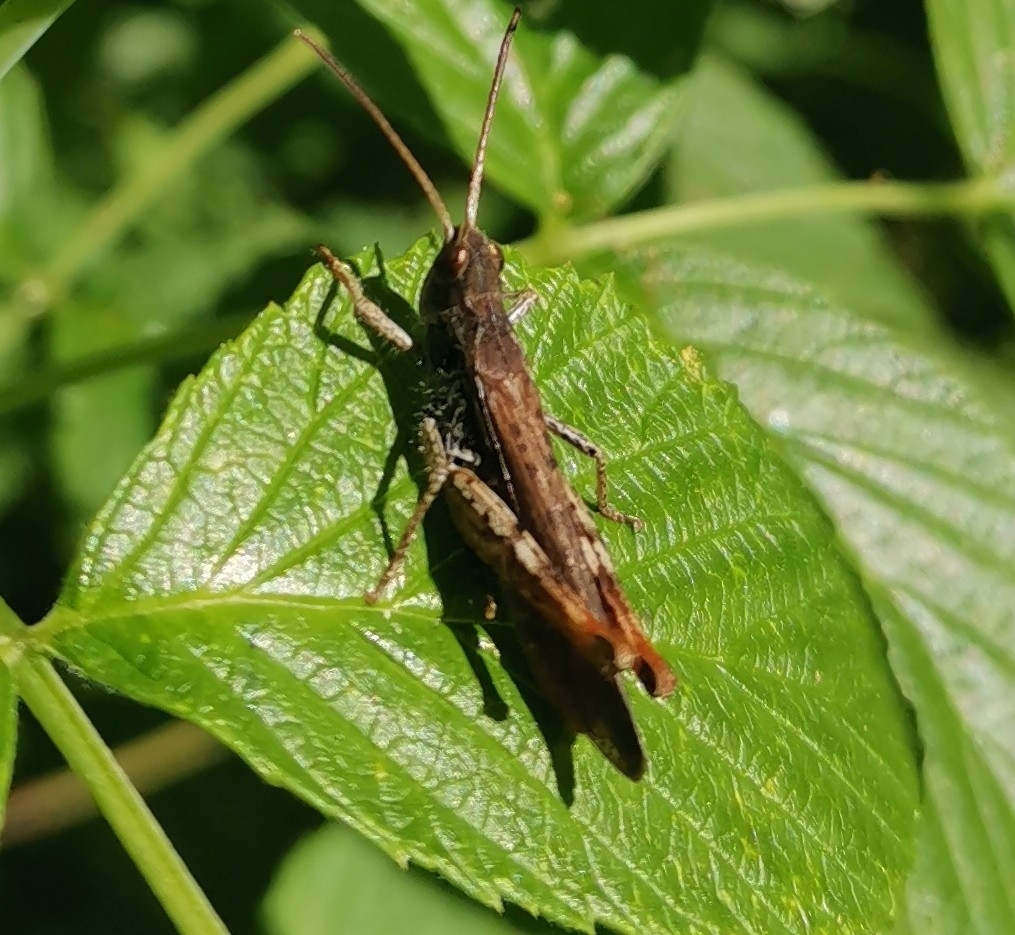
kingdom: Animalia
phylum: Arthropoda
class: Insecta
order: Orthoptera
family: Acrididae
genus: Chorthippus
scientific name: Chorthippus brunneus
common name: Field grasshopper
